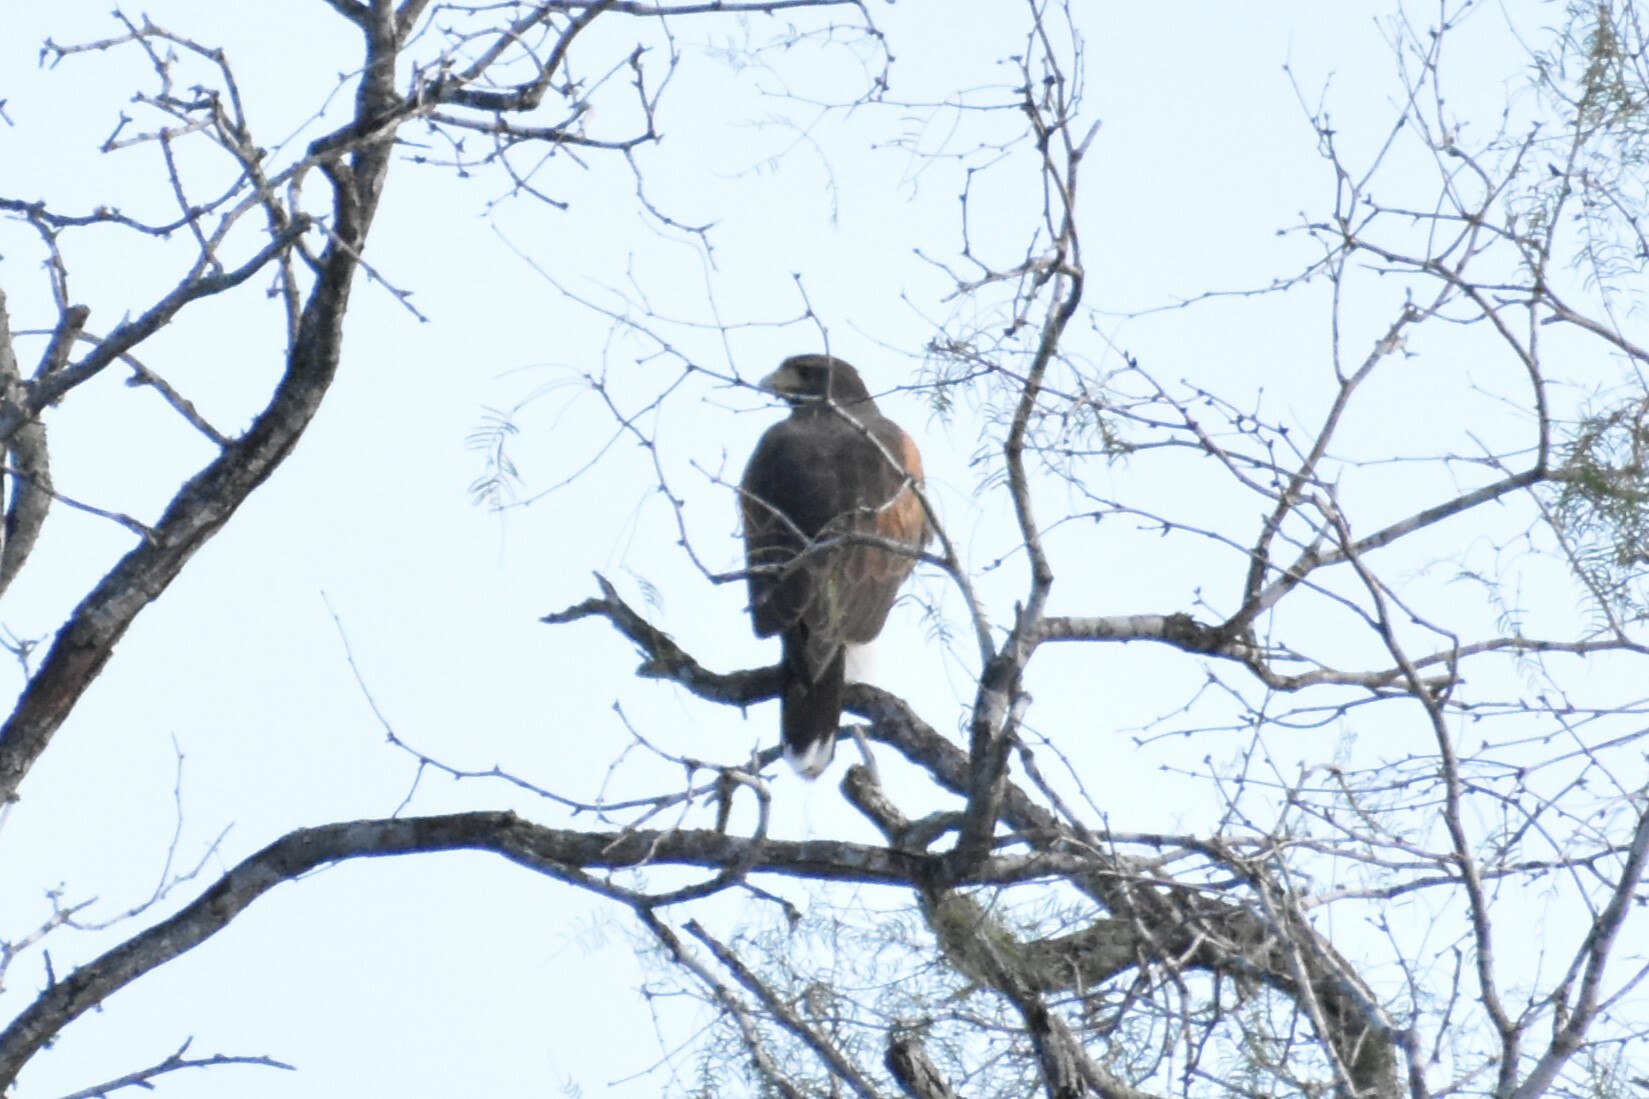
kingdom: Animalia
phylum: Chordata
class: Aves
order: Accipitriformes
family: Accipitridae
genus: Parabuteo
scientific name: Parabuteo unicinctus
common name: Harris's hawk
